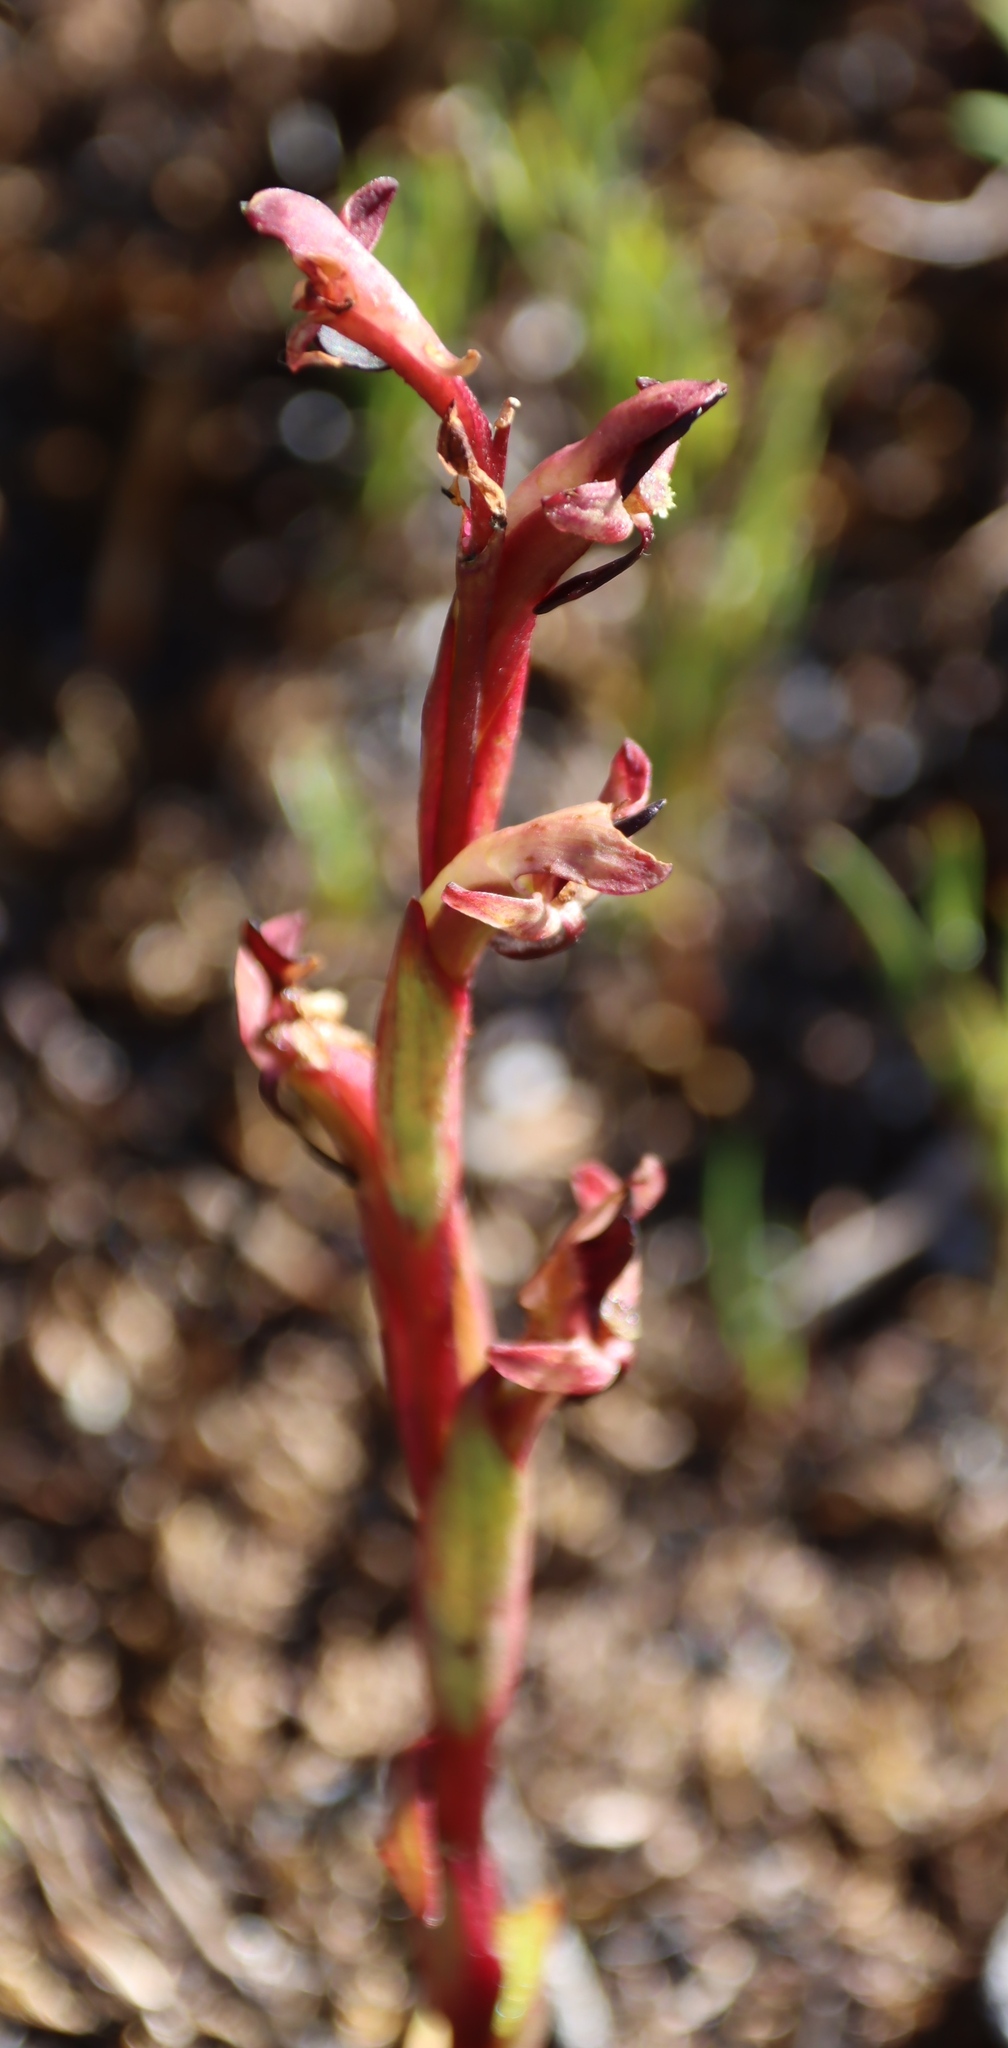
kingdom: Plantae
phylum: Tracheophyta
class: Liliopsida
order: Asparagales
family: Orchidaceae
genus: Disa
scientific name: Disa ophrydea
